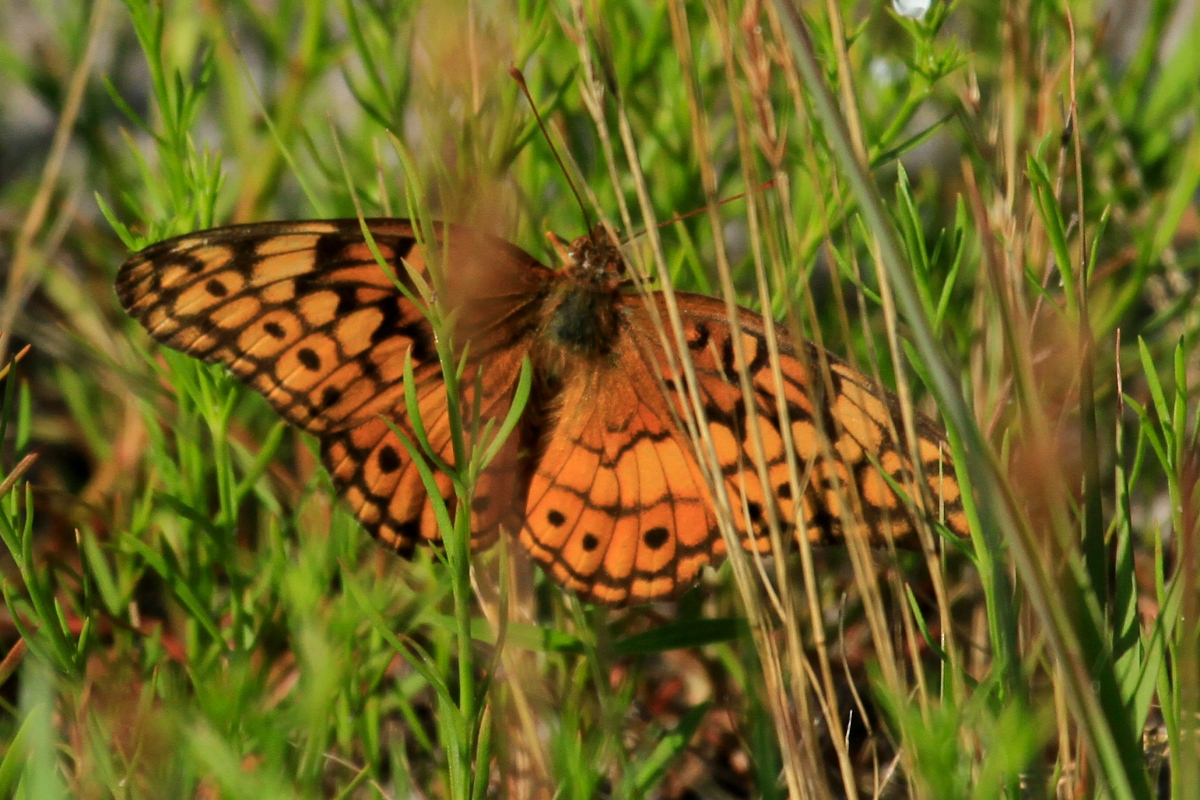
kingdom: Animalia
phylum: Arthropoda
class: Insecta
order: Lepidoptera
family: Nymphalidae
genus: Euptoieta
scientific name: Euptoieta claudia
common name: Variegated fritillary
